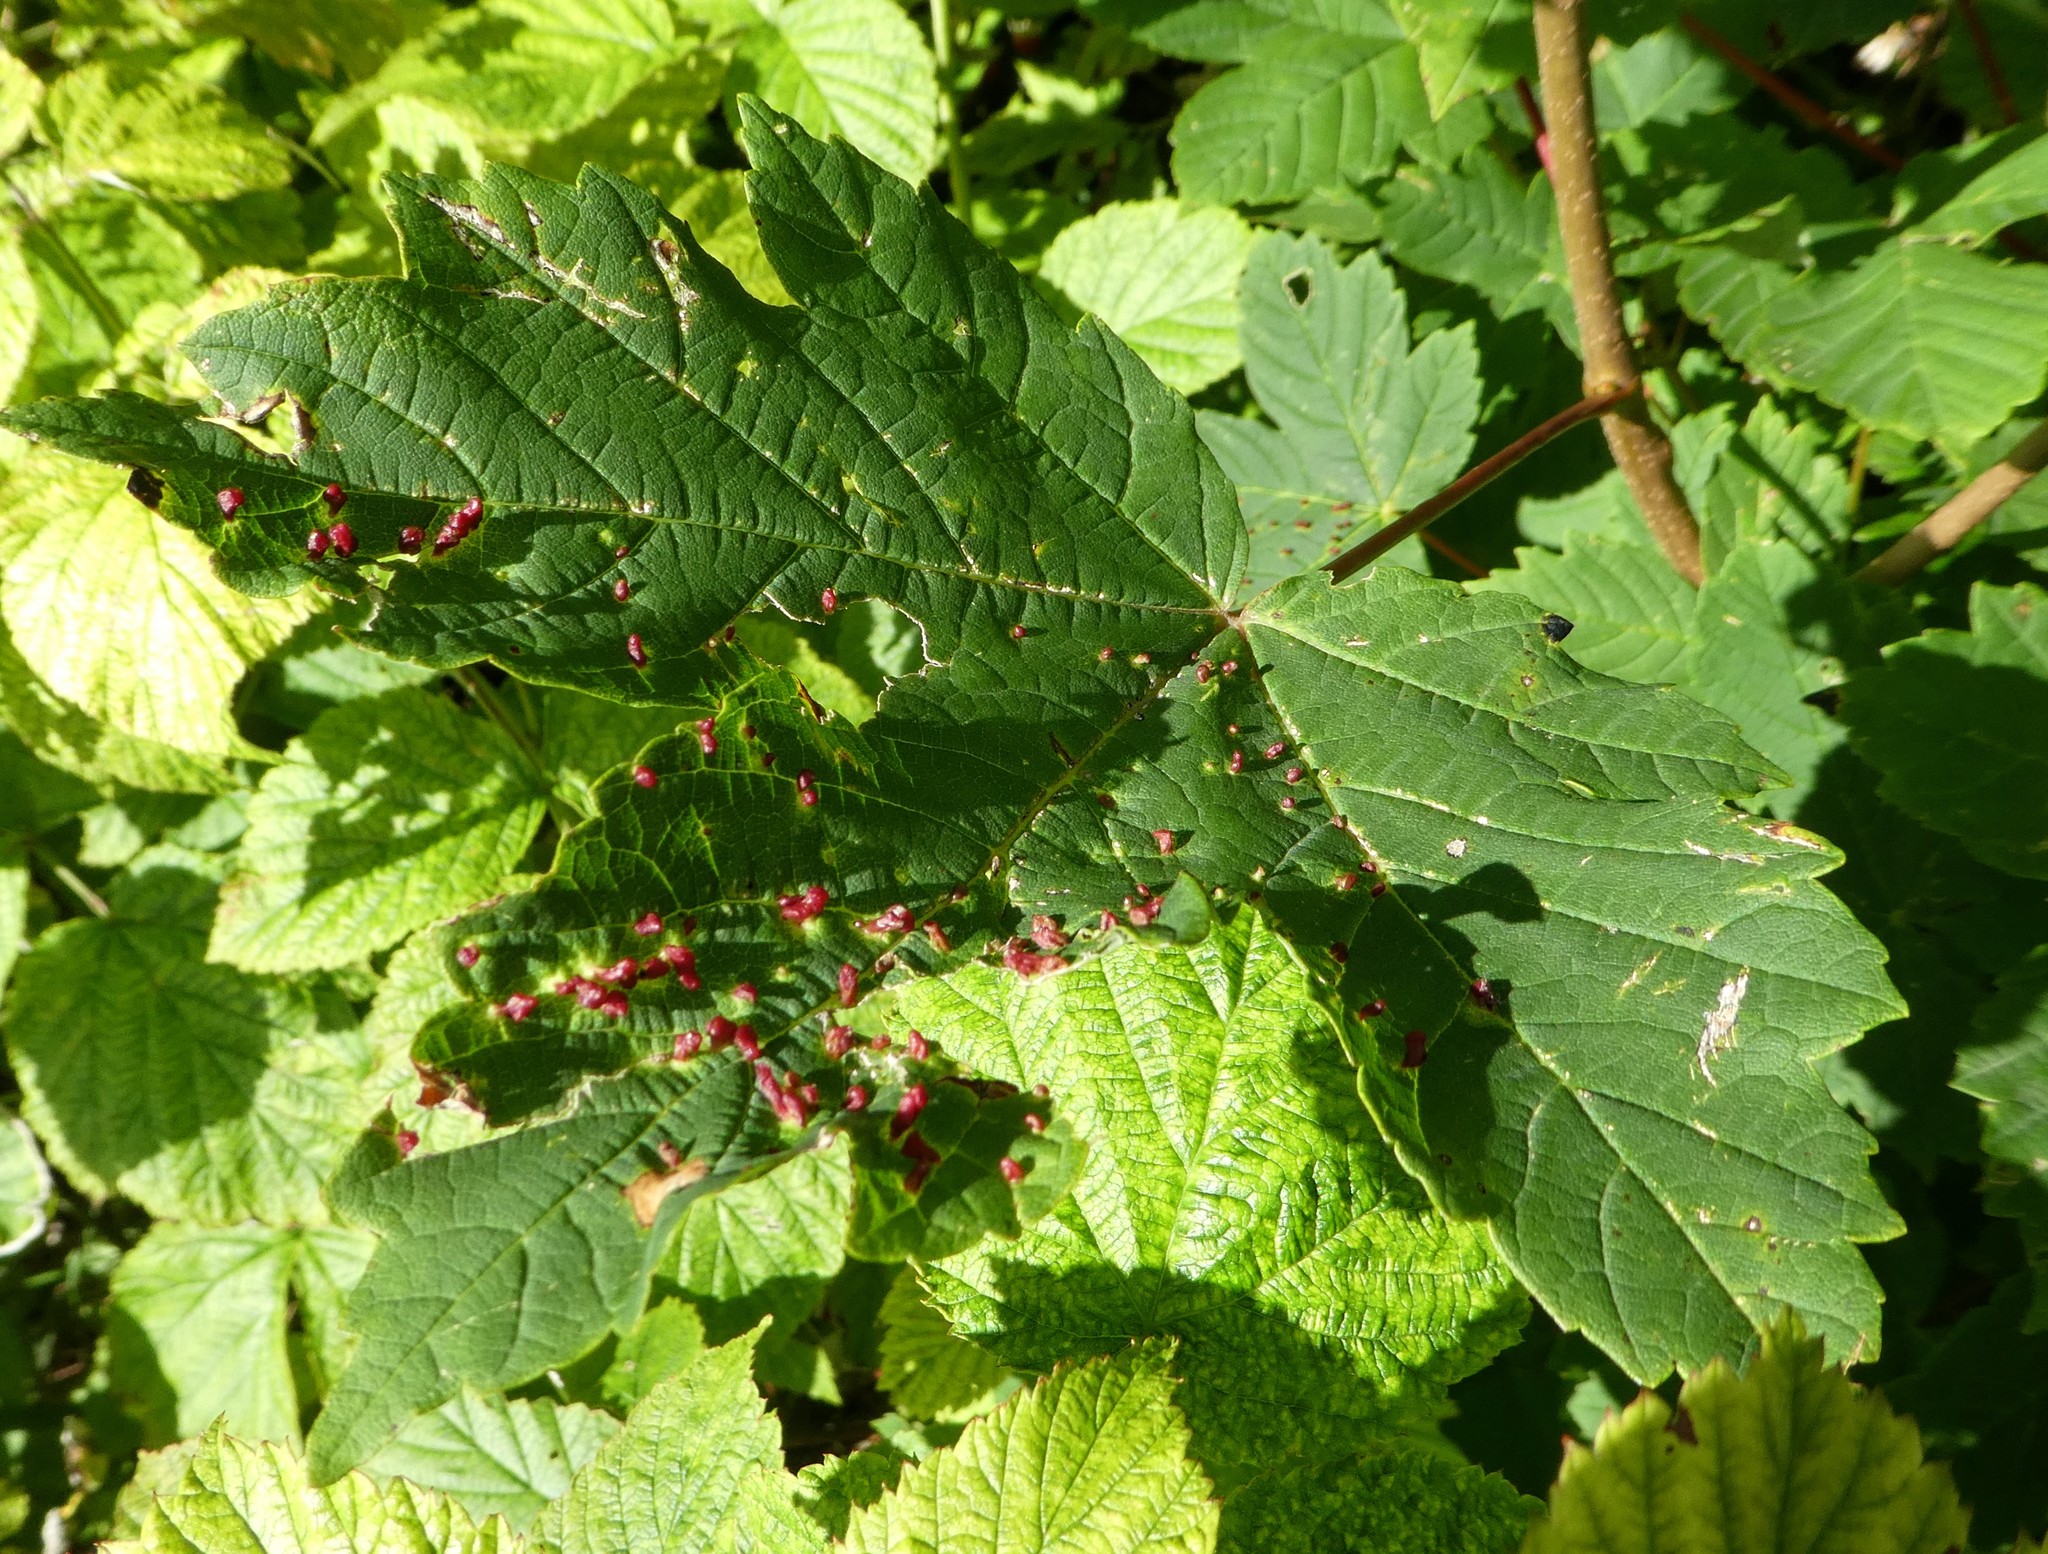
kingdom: Plantae
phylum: Tracheophyta
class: Magnoliopsida
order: Sapindales
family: Sapindaceae
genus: Acer
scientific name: Acer pseudoplatanus
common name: Sycamore
